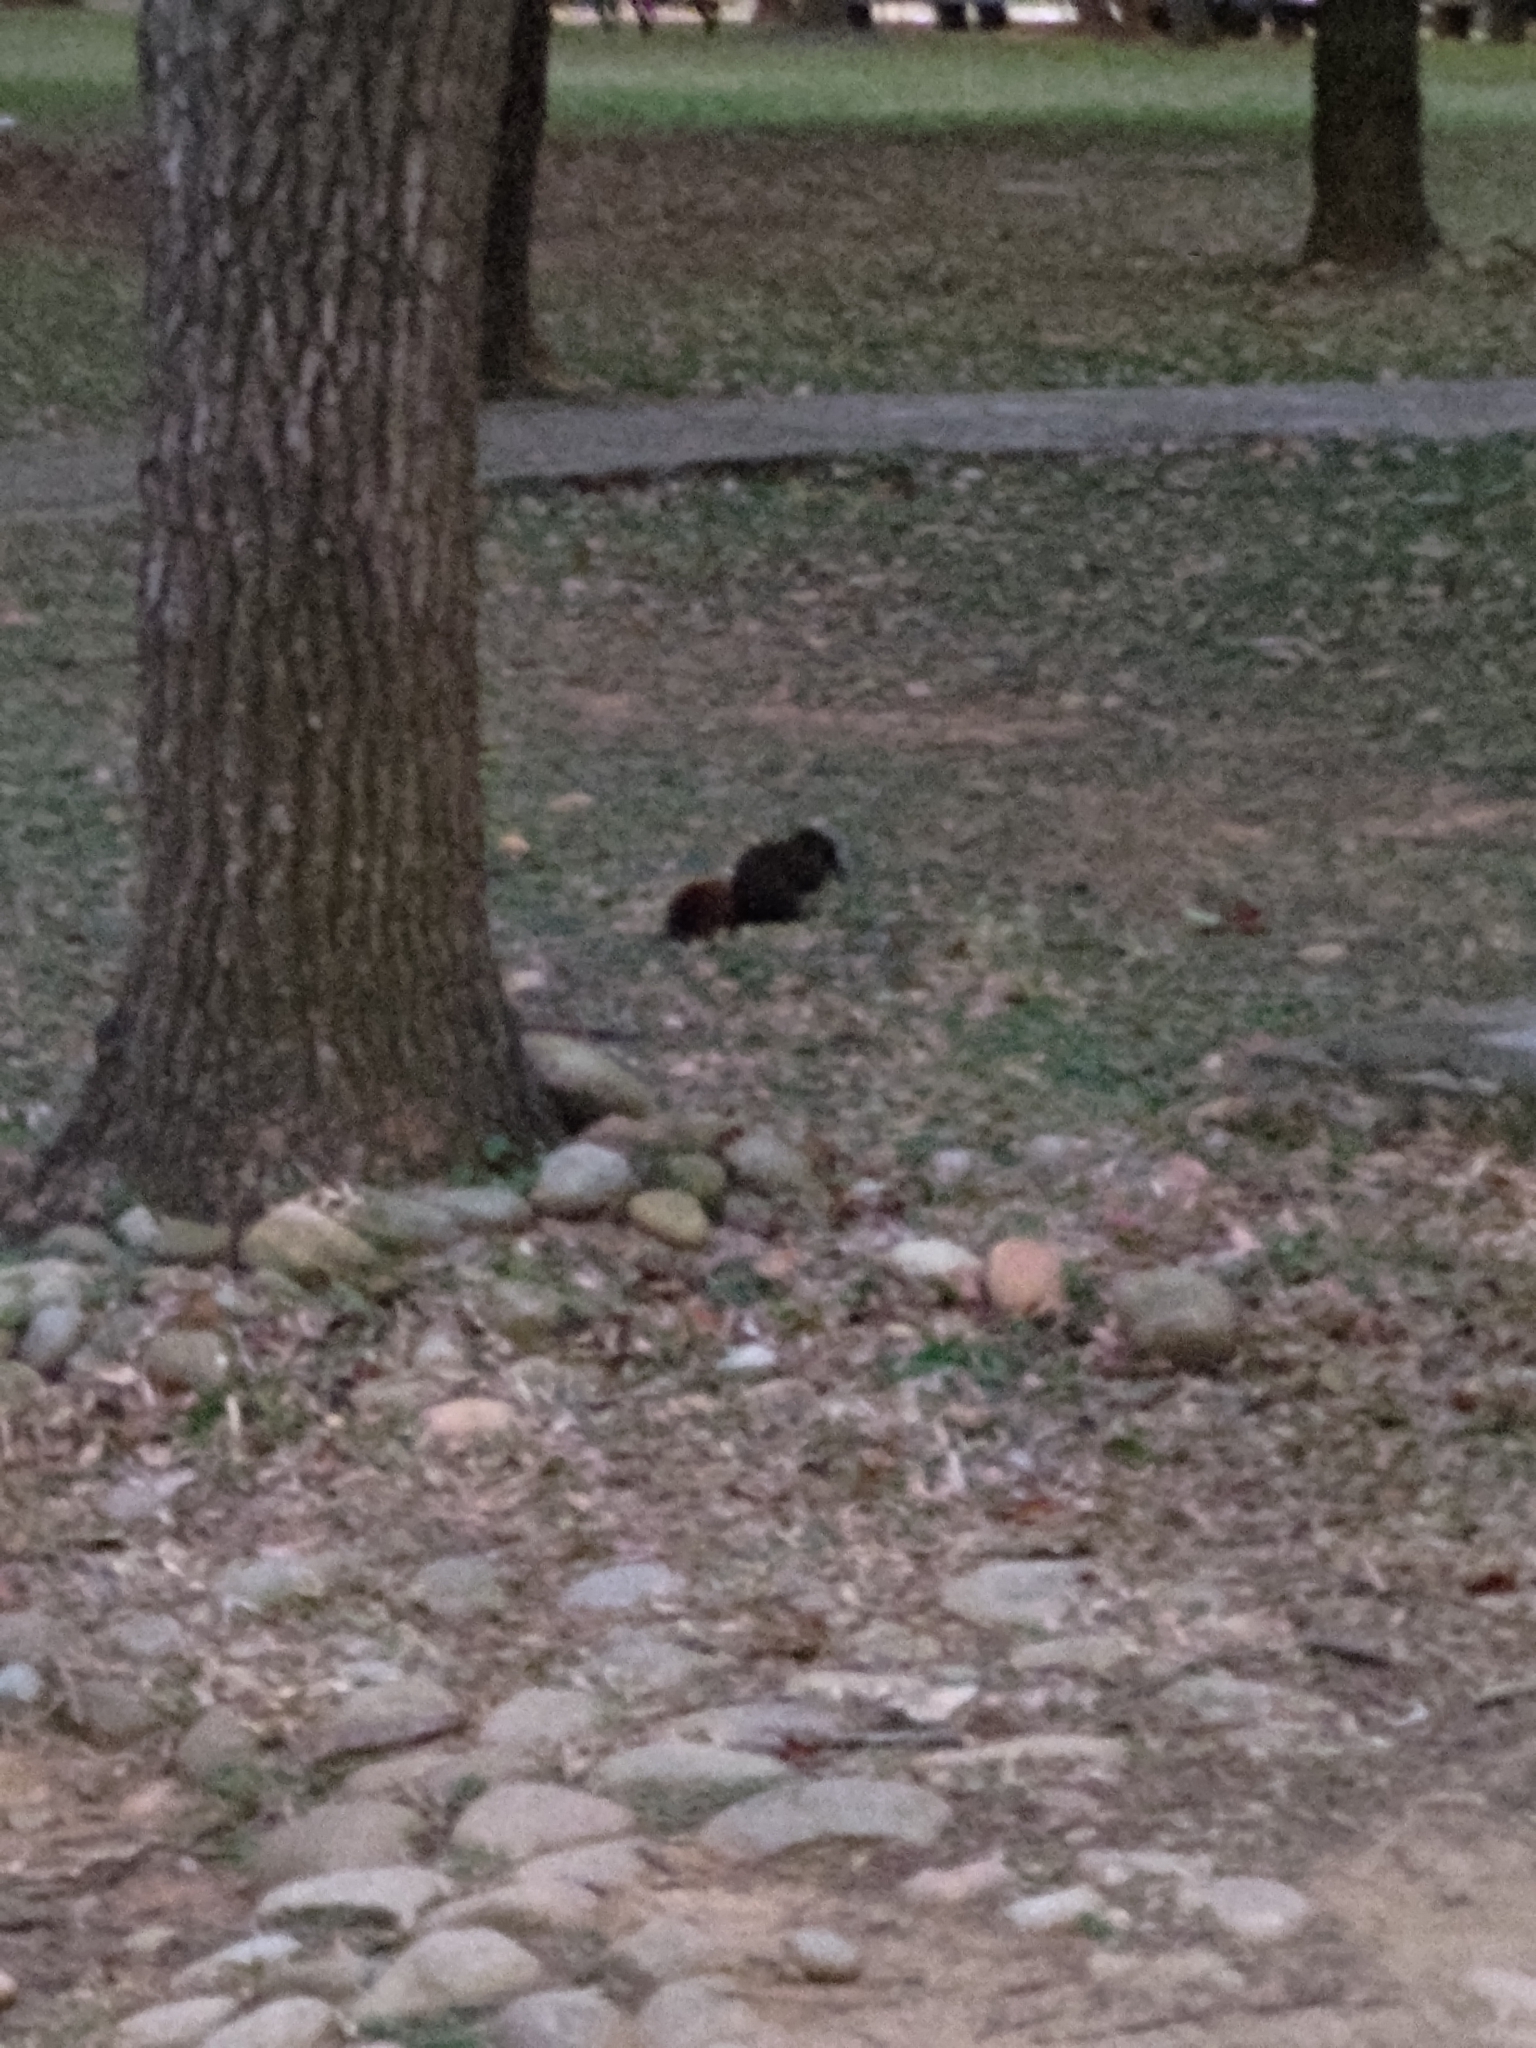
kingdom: Animalia
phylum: Chordata
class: Mammalia
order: Rodentia
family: Sciuridae
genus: Callosciurus
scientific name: Callosciurus erythraeus
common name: Pallas's squirrel
